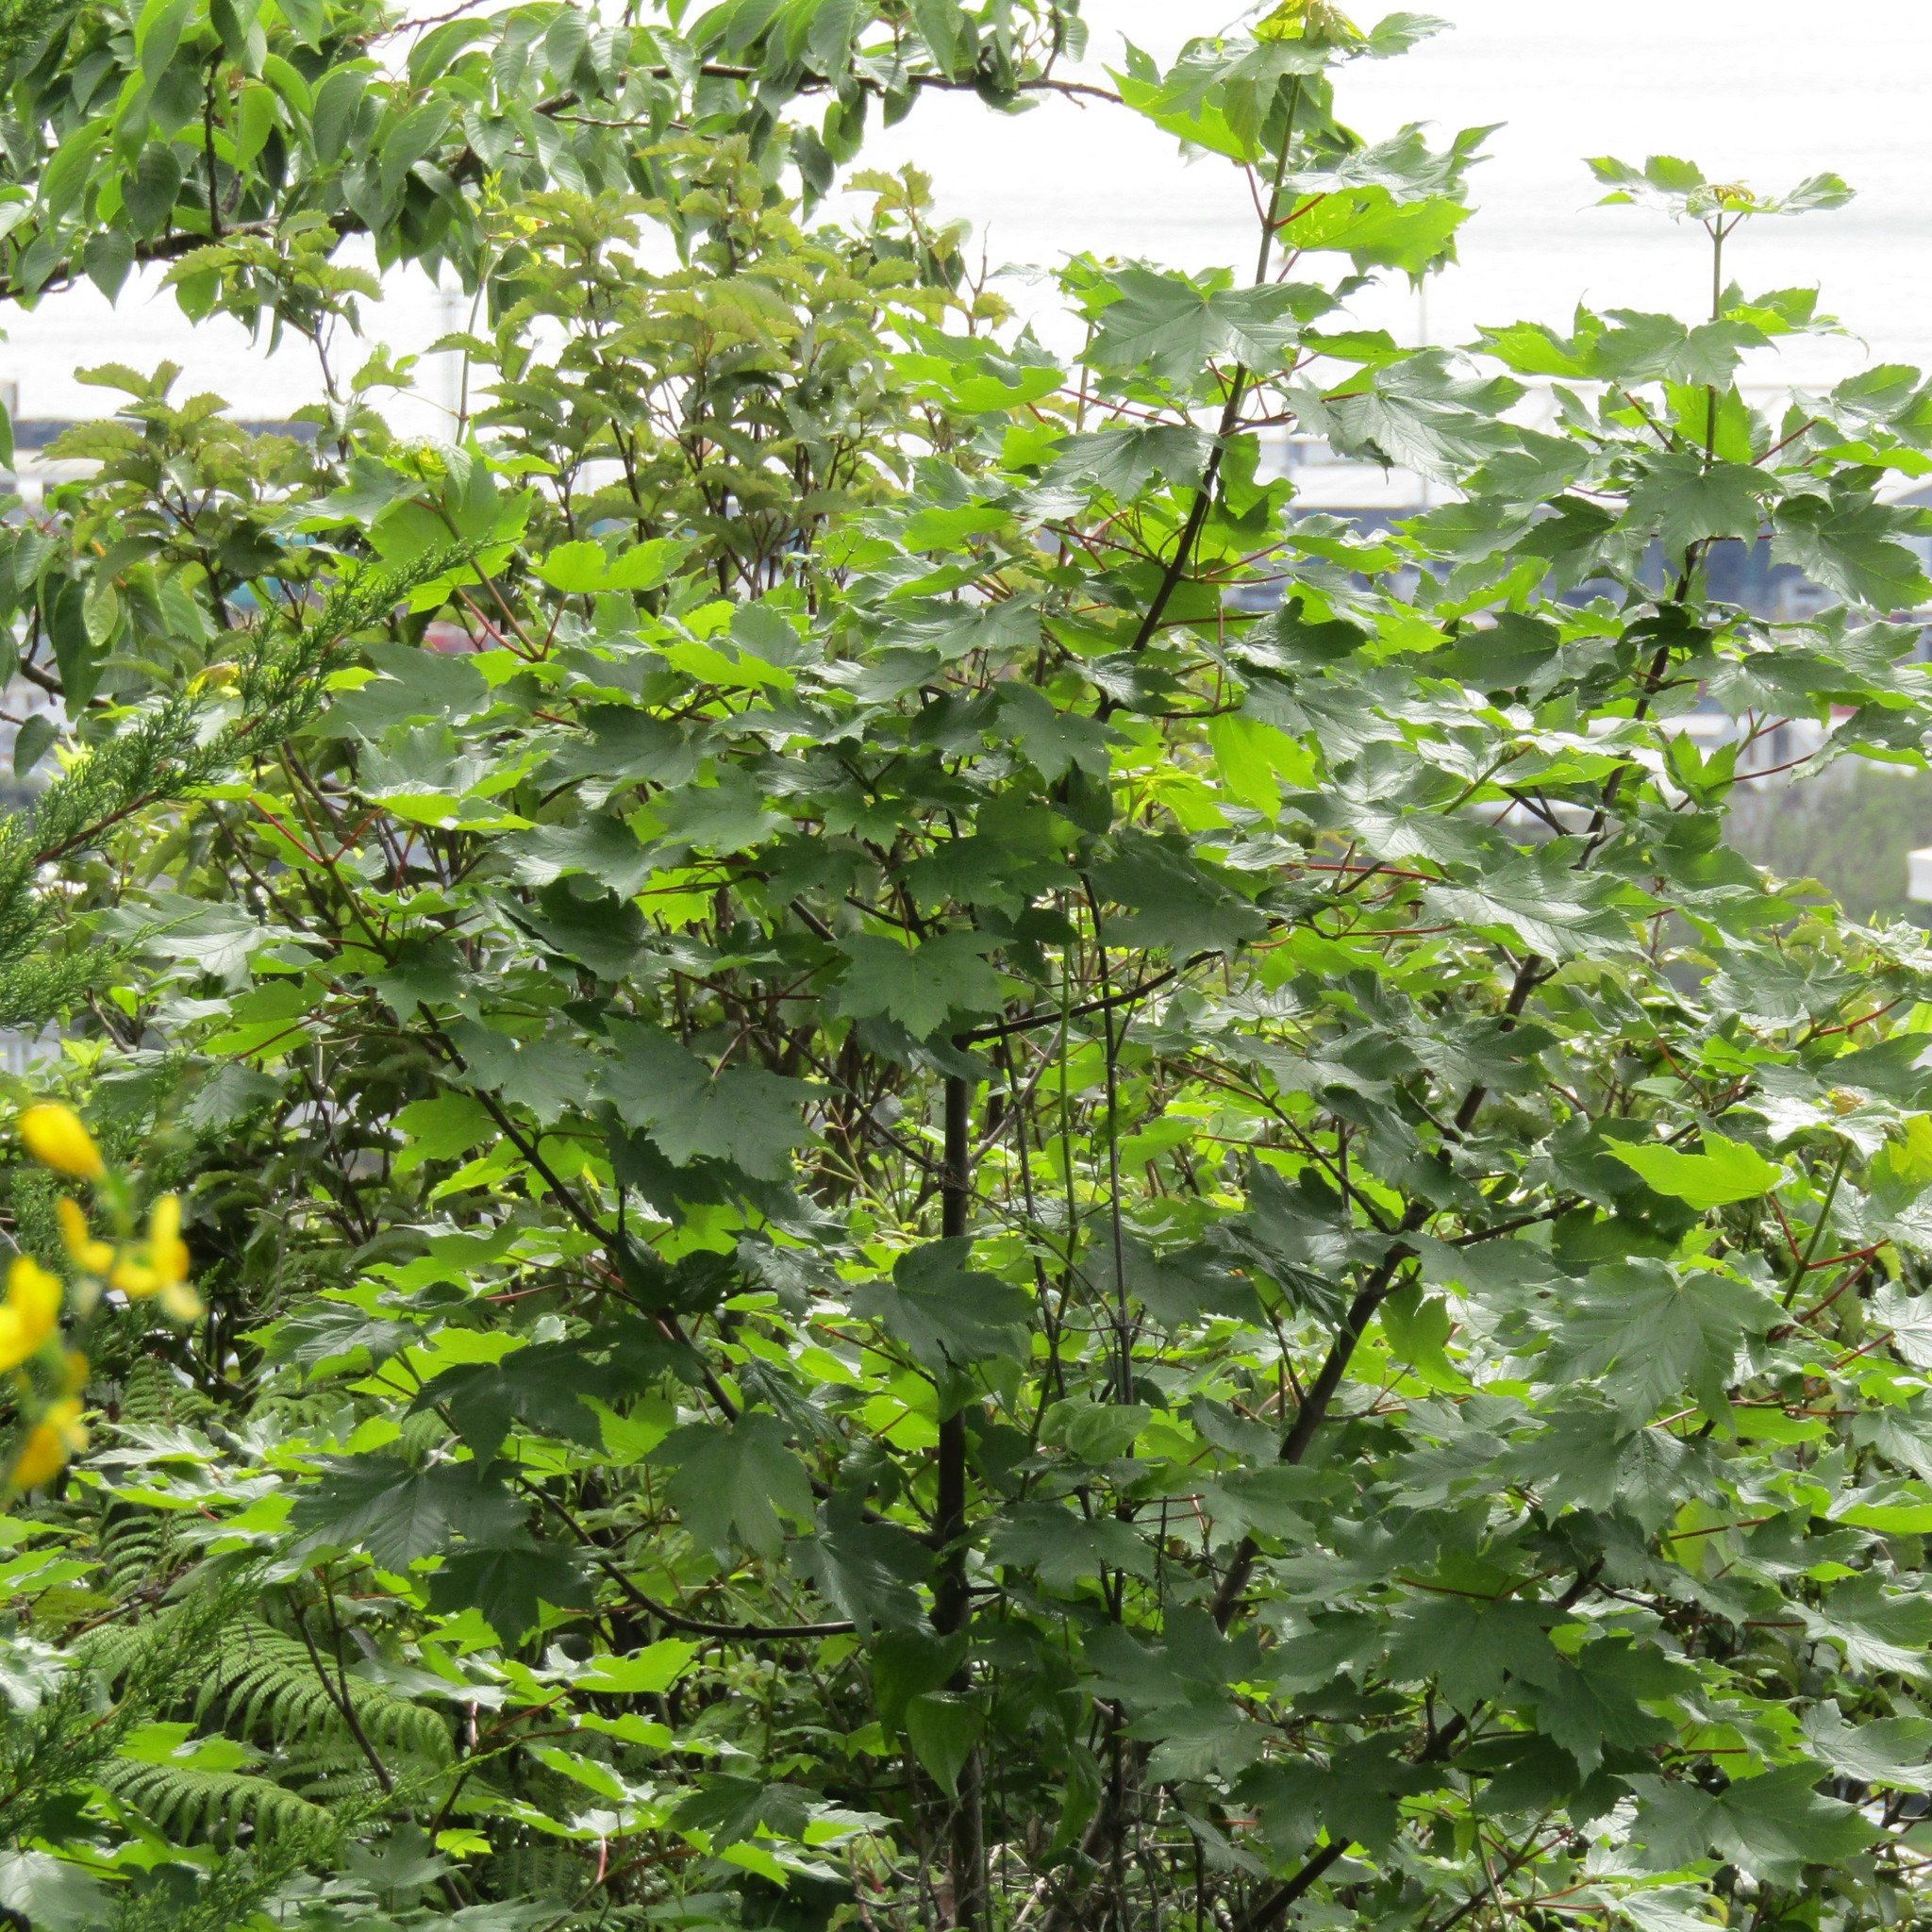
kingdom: Plantae
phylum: Tracheophyta
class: Magnoliopsida
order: Sapindales
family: Sapindaceae
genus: Acer
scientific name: Acer pseudoplatanus
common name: Sycamore
